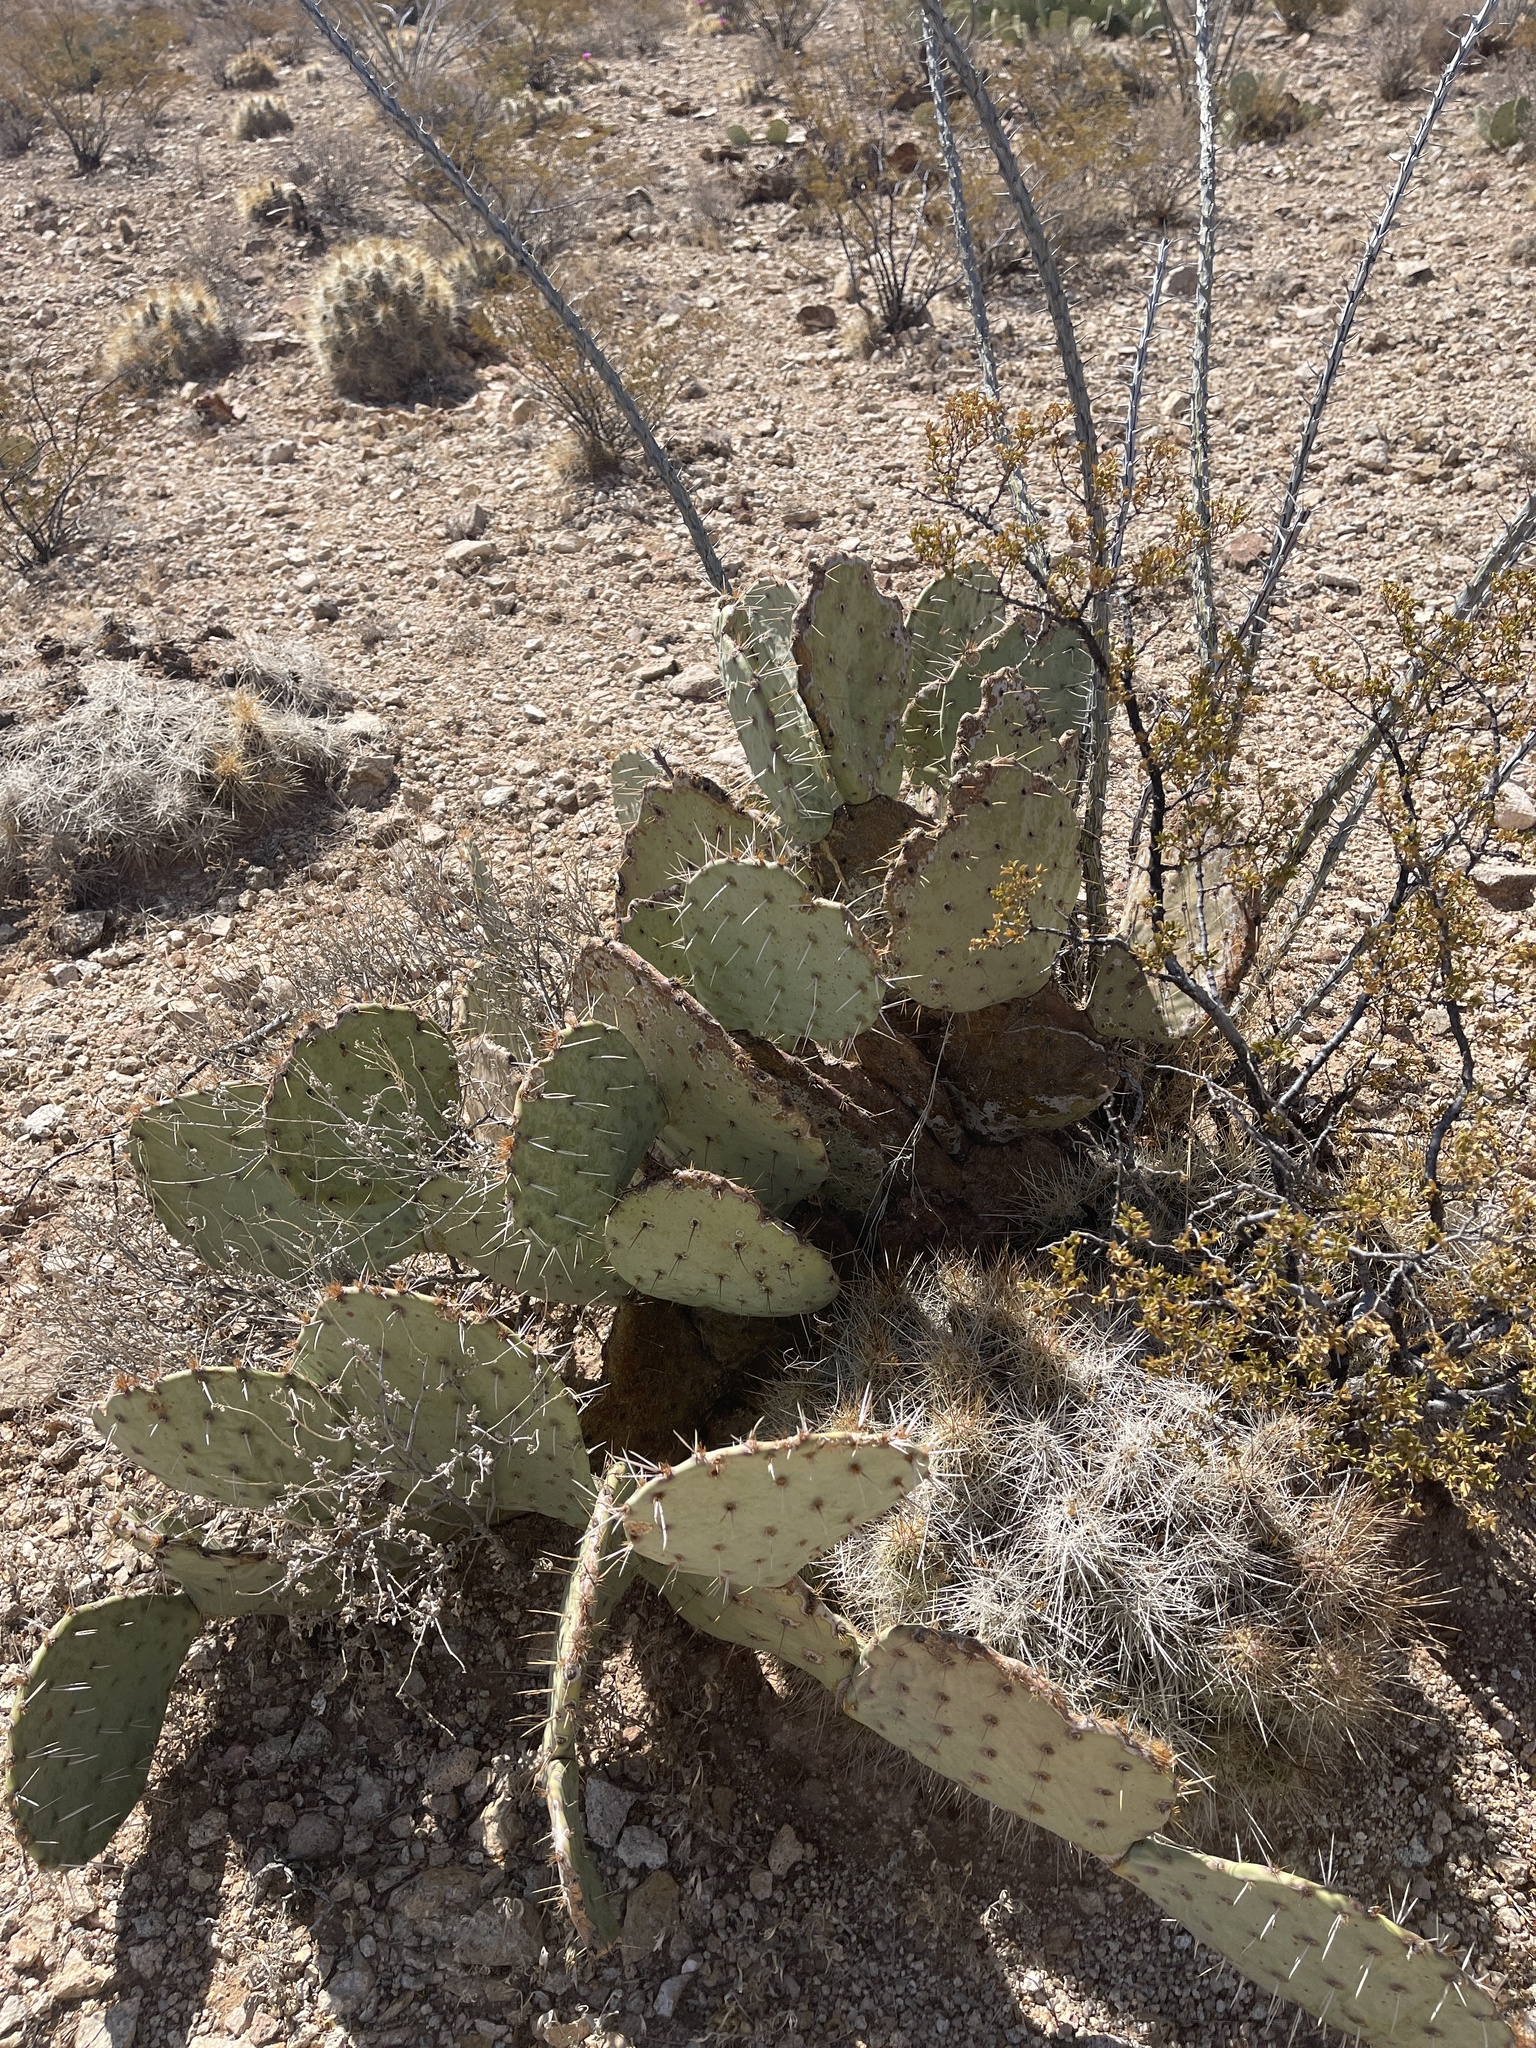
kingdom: Plantae
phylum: Tracheophyta
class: Magnoliopsida
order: Caryophyllales
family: Cactaceae
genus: Opuntia
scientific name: Opuntia engelmannii
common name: Cactus-apple
